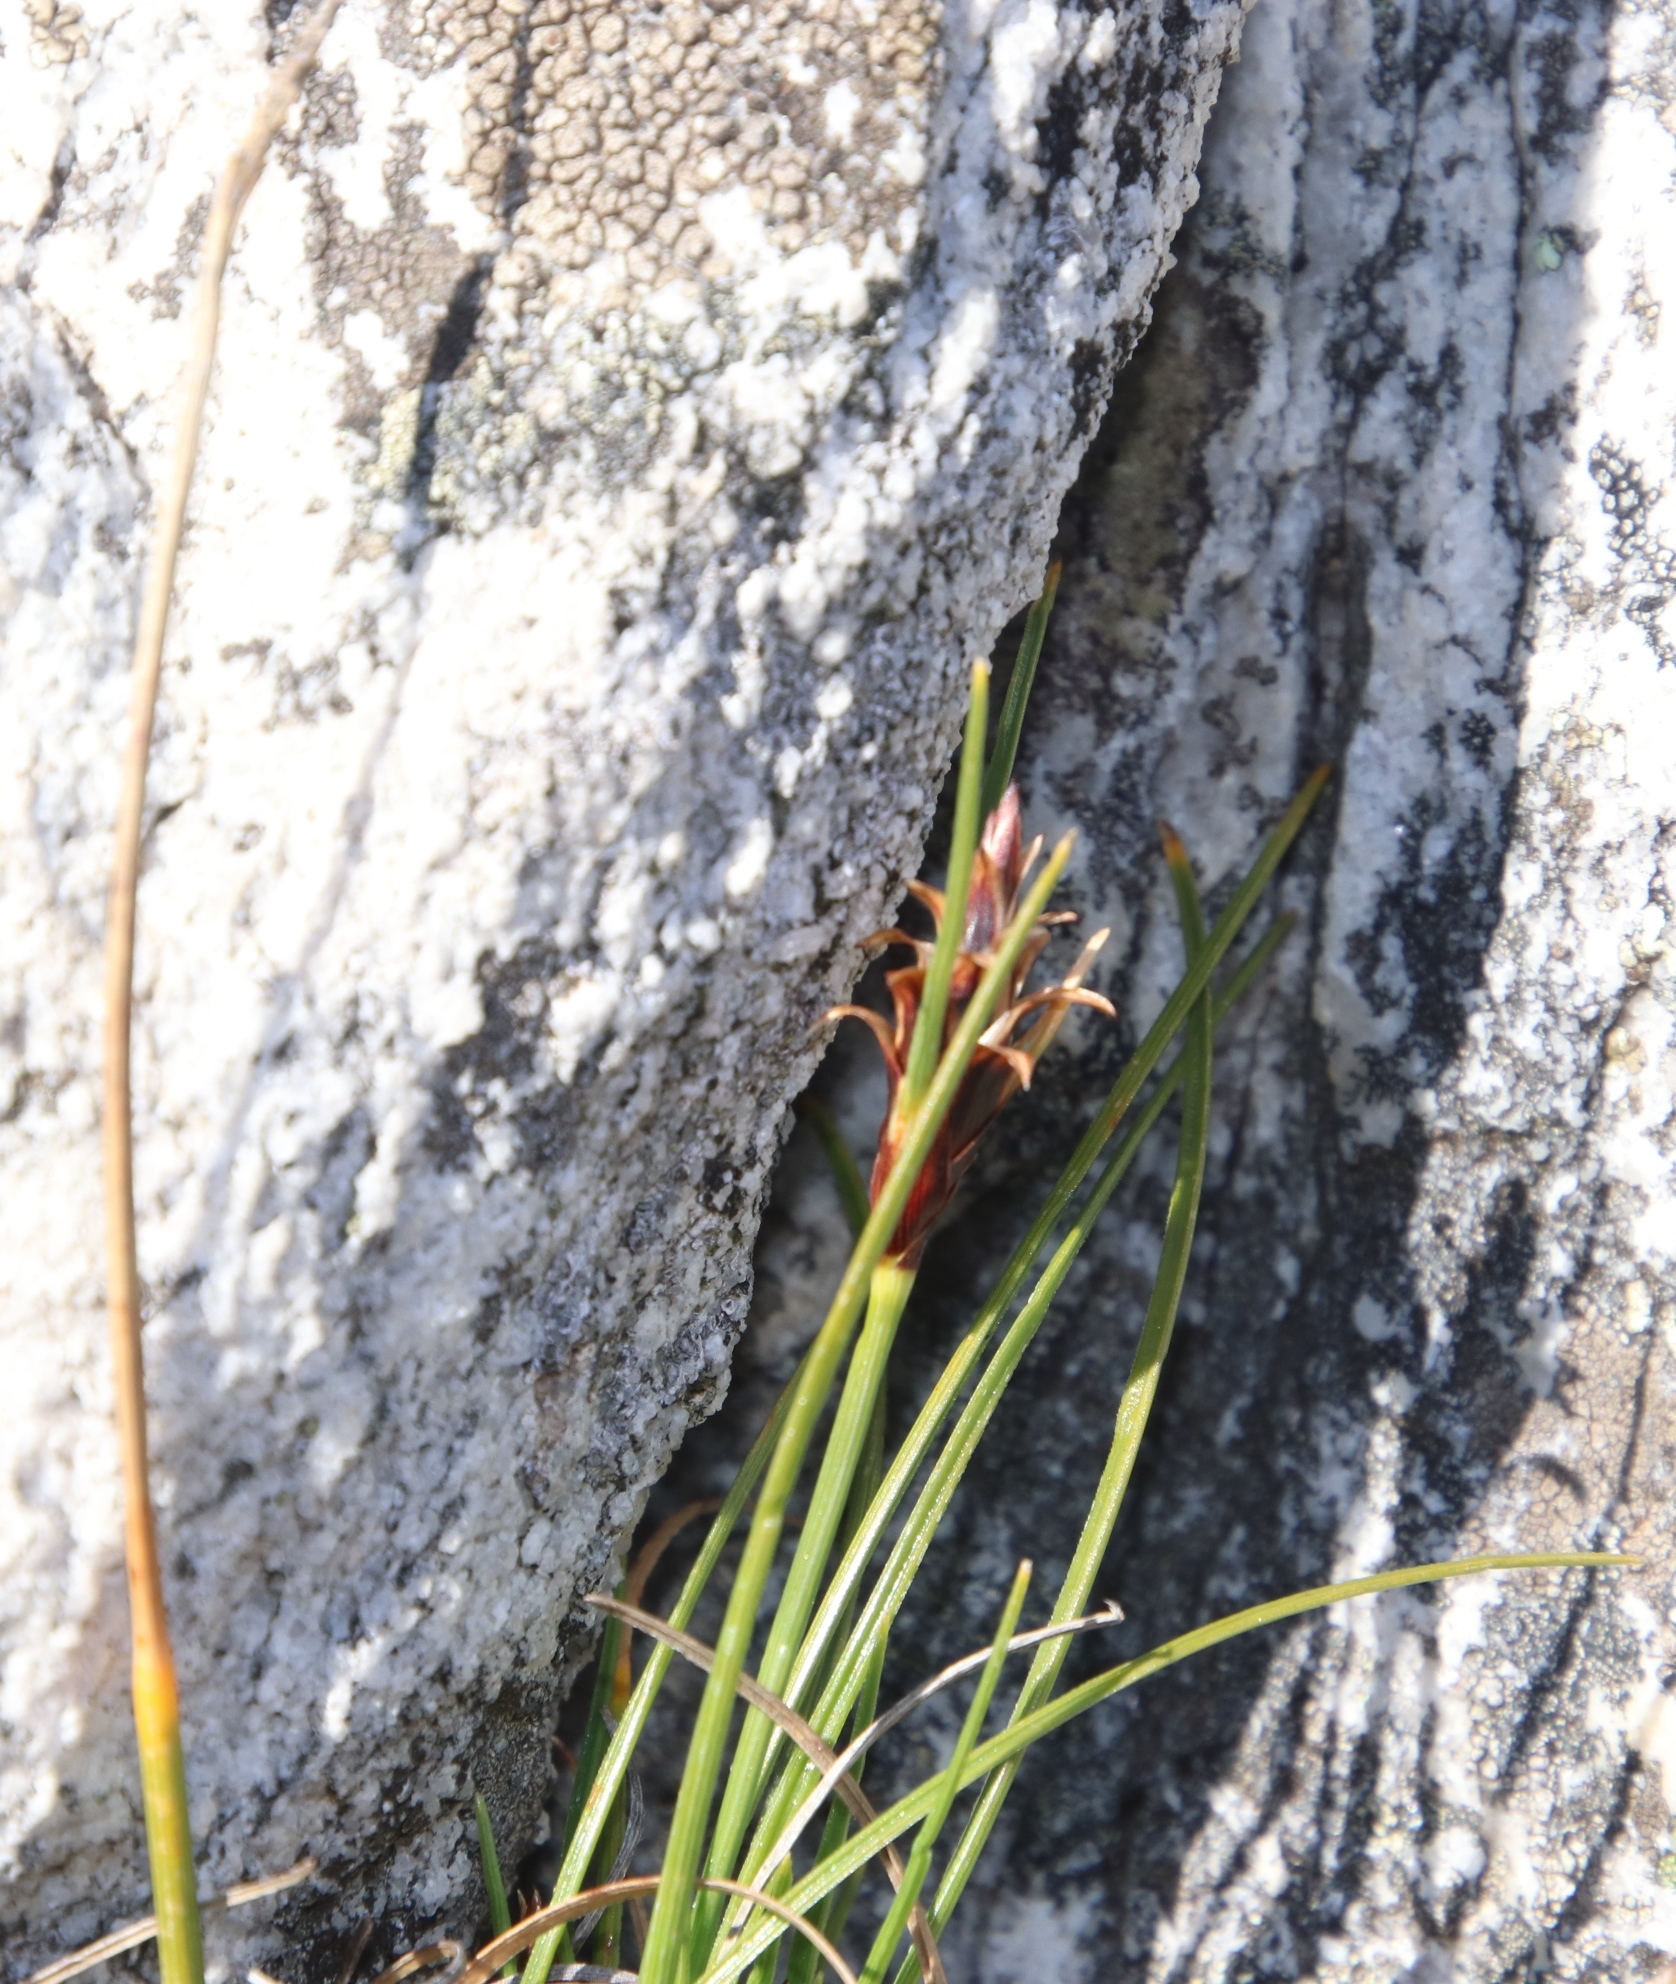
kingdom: Plantae
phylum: Tracheophyta
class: Liliopsida
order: Poales
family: Cyperaceae
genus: Ficinia
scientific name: Ficinia nigrescens
